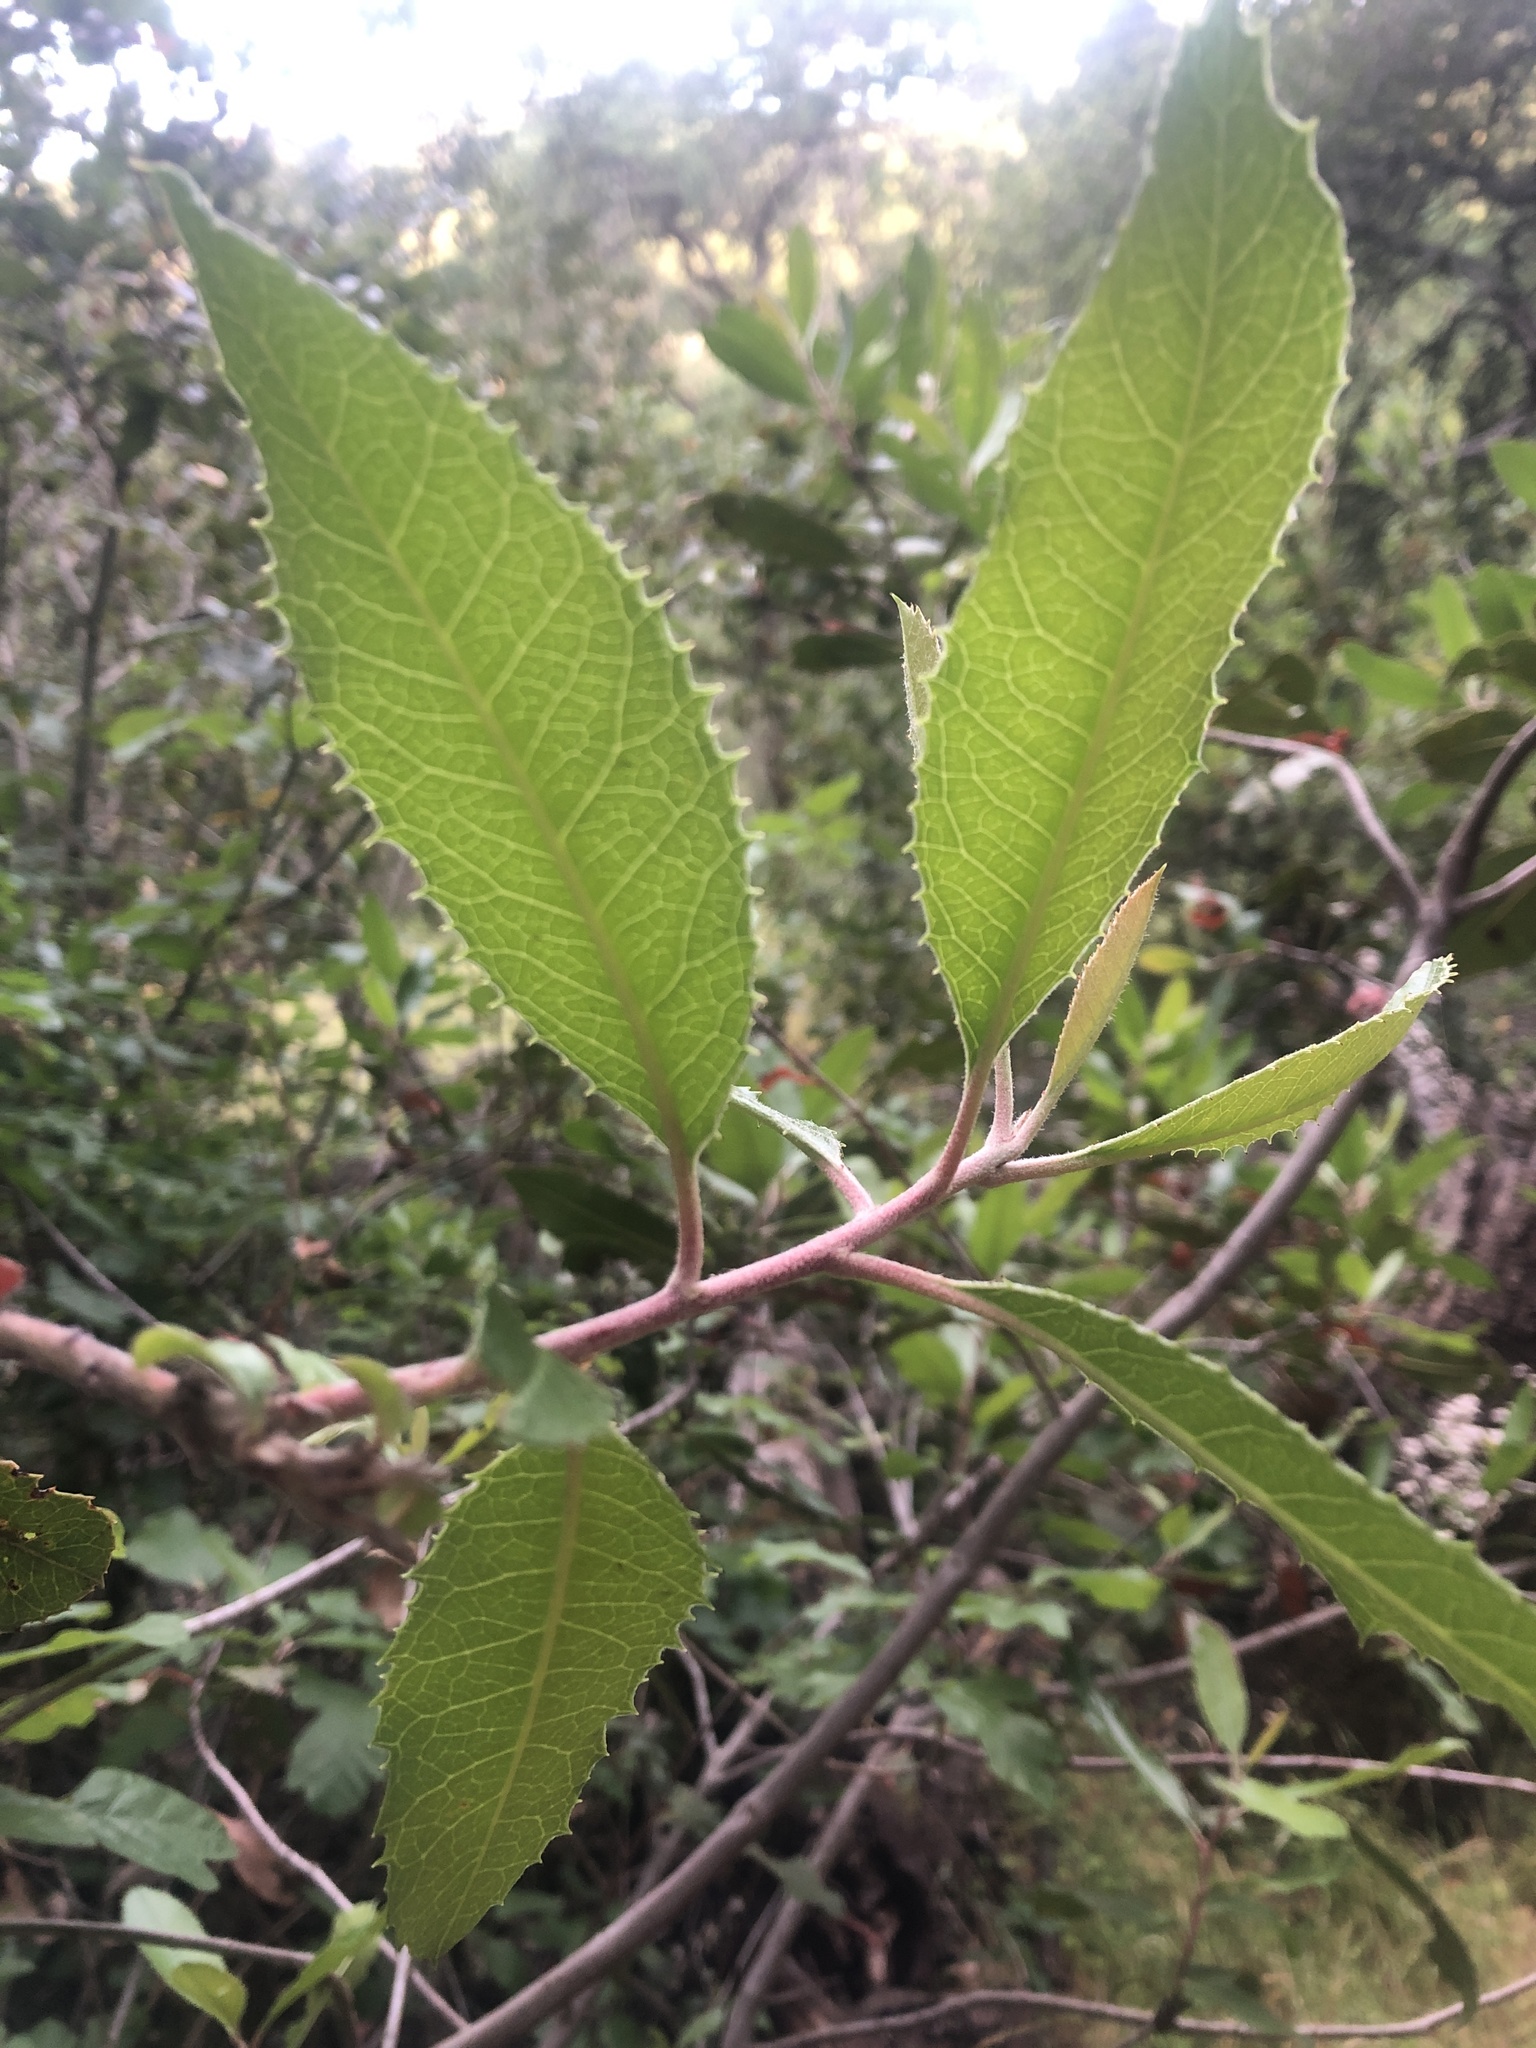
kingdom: Plantae
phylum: Tracheophyta
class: Magnoliopsida
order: Rosales
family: Rosaceae
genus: Heteromeles
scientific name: Heteromeles arbutifolia
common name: California-holly
